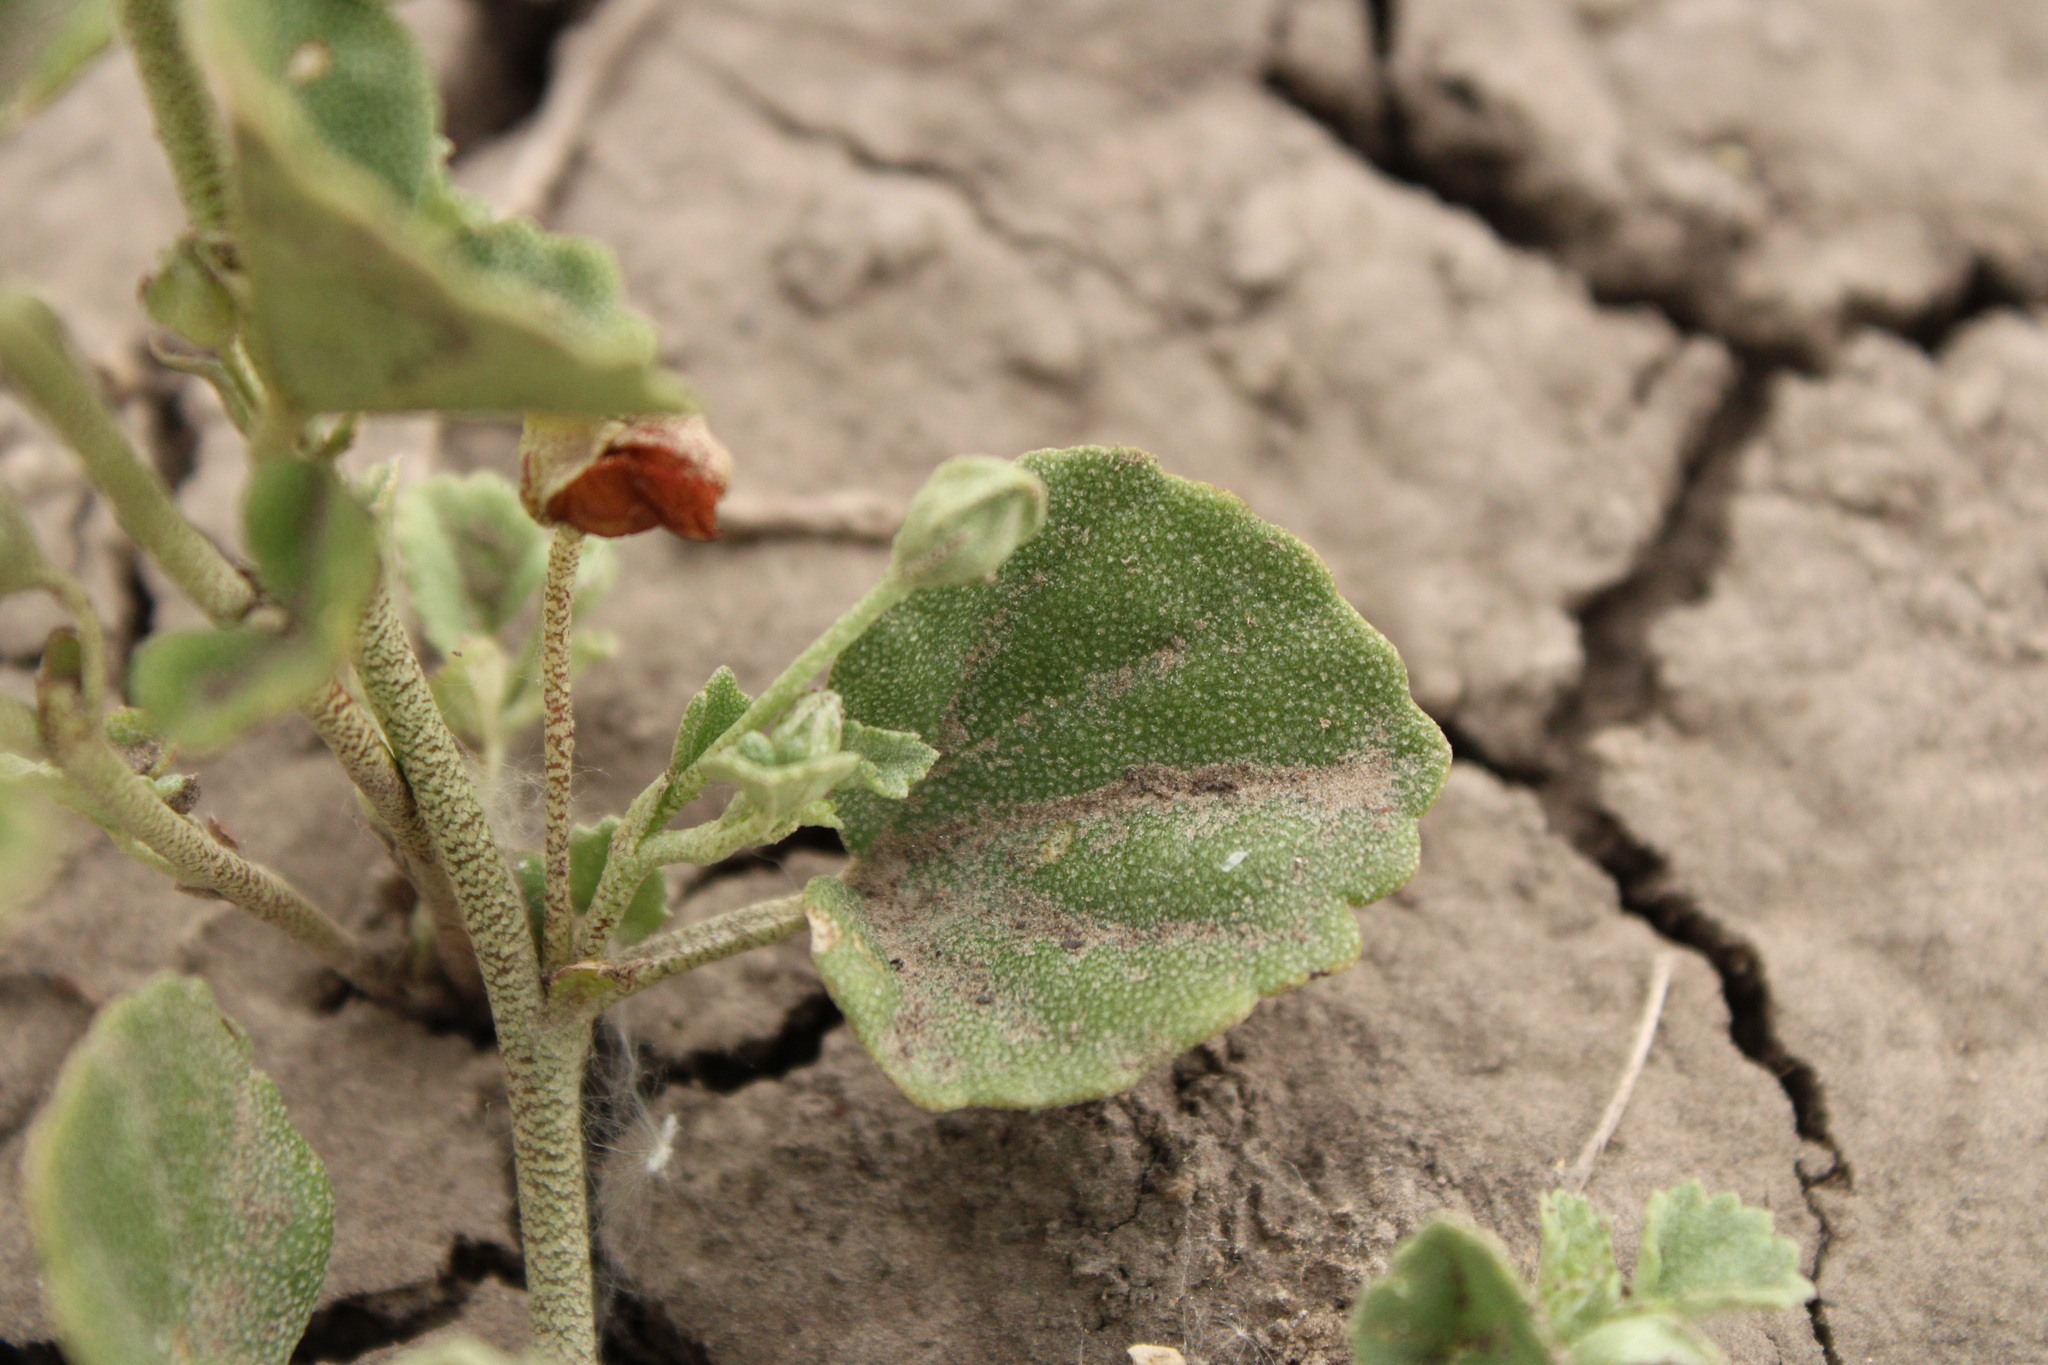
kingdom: Plantae
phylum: Tracheophyta
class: Magnoliopsida
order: Malvales
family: Malvaceae
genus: Malvella
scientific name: Malvella leprosa
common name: Alkali-mallow
